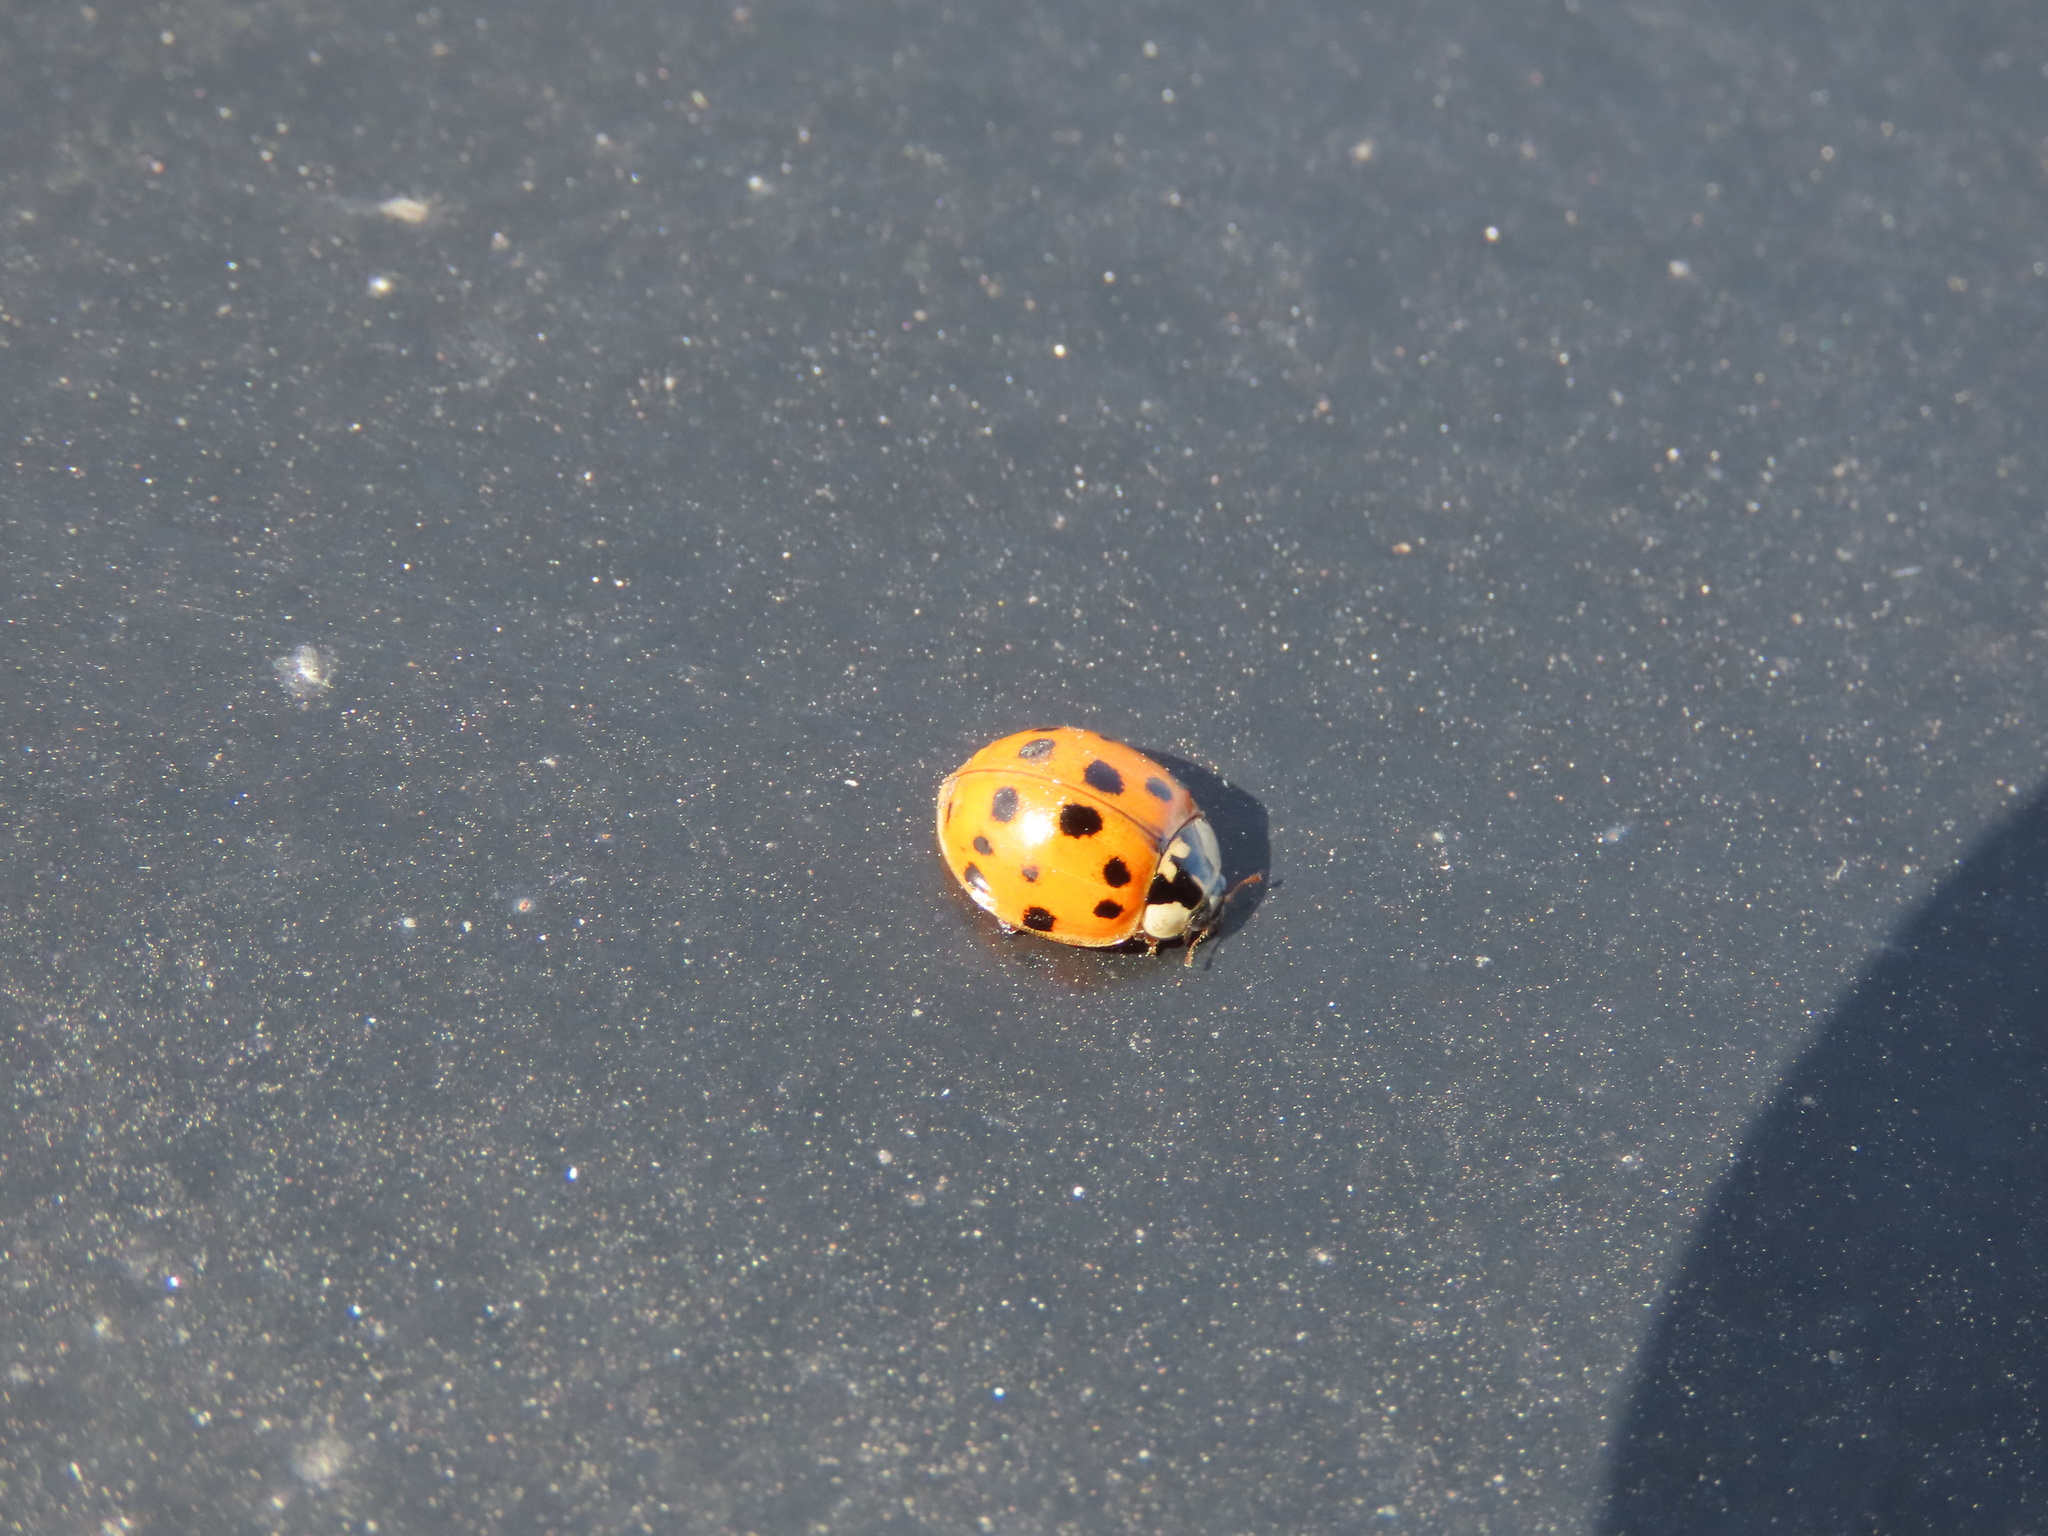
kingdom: Animalia
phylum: Arthropoda
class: Insecta
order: Coleoptera
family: Coccinellidae
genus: Harmonia
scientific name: Harmonia axyridis
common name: Harlequin ladybird
